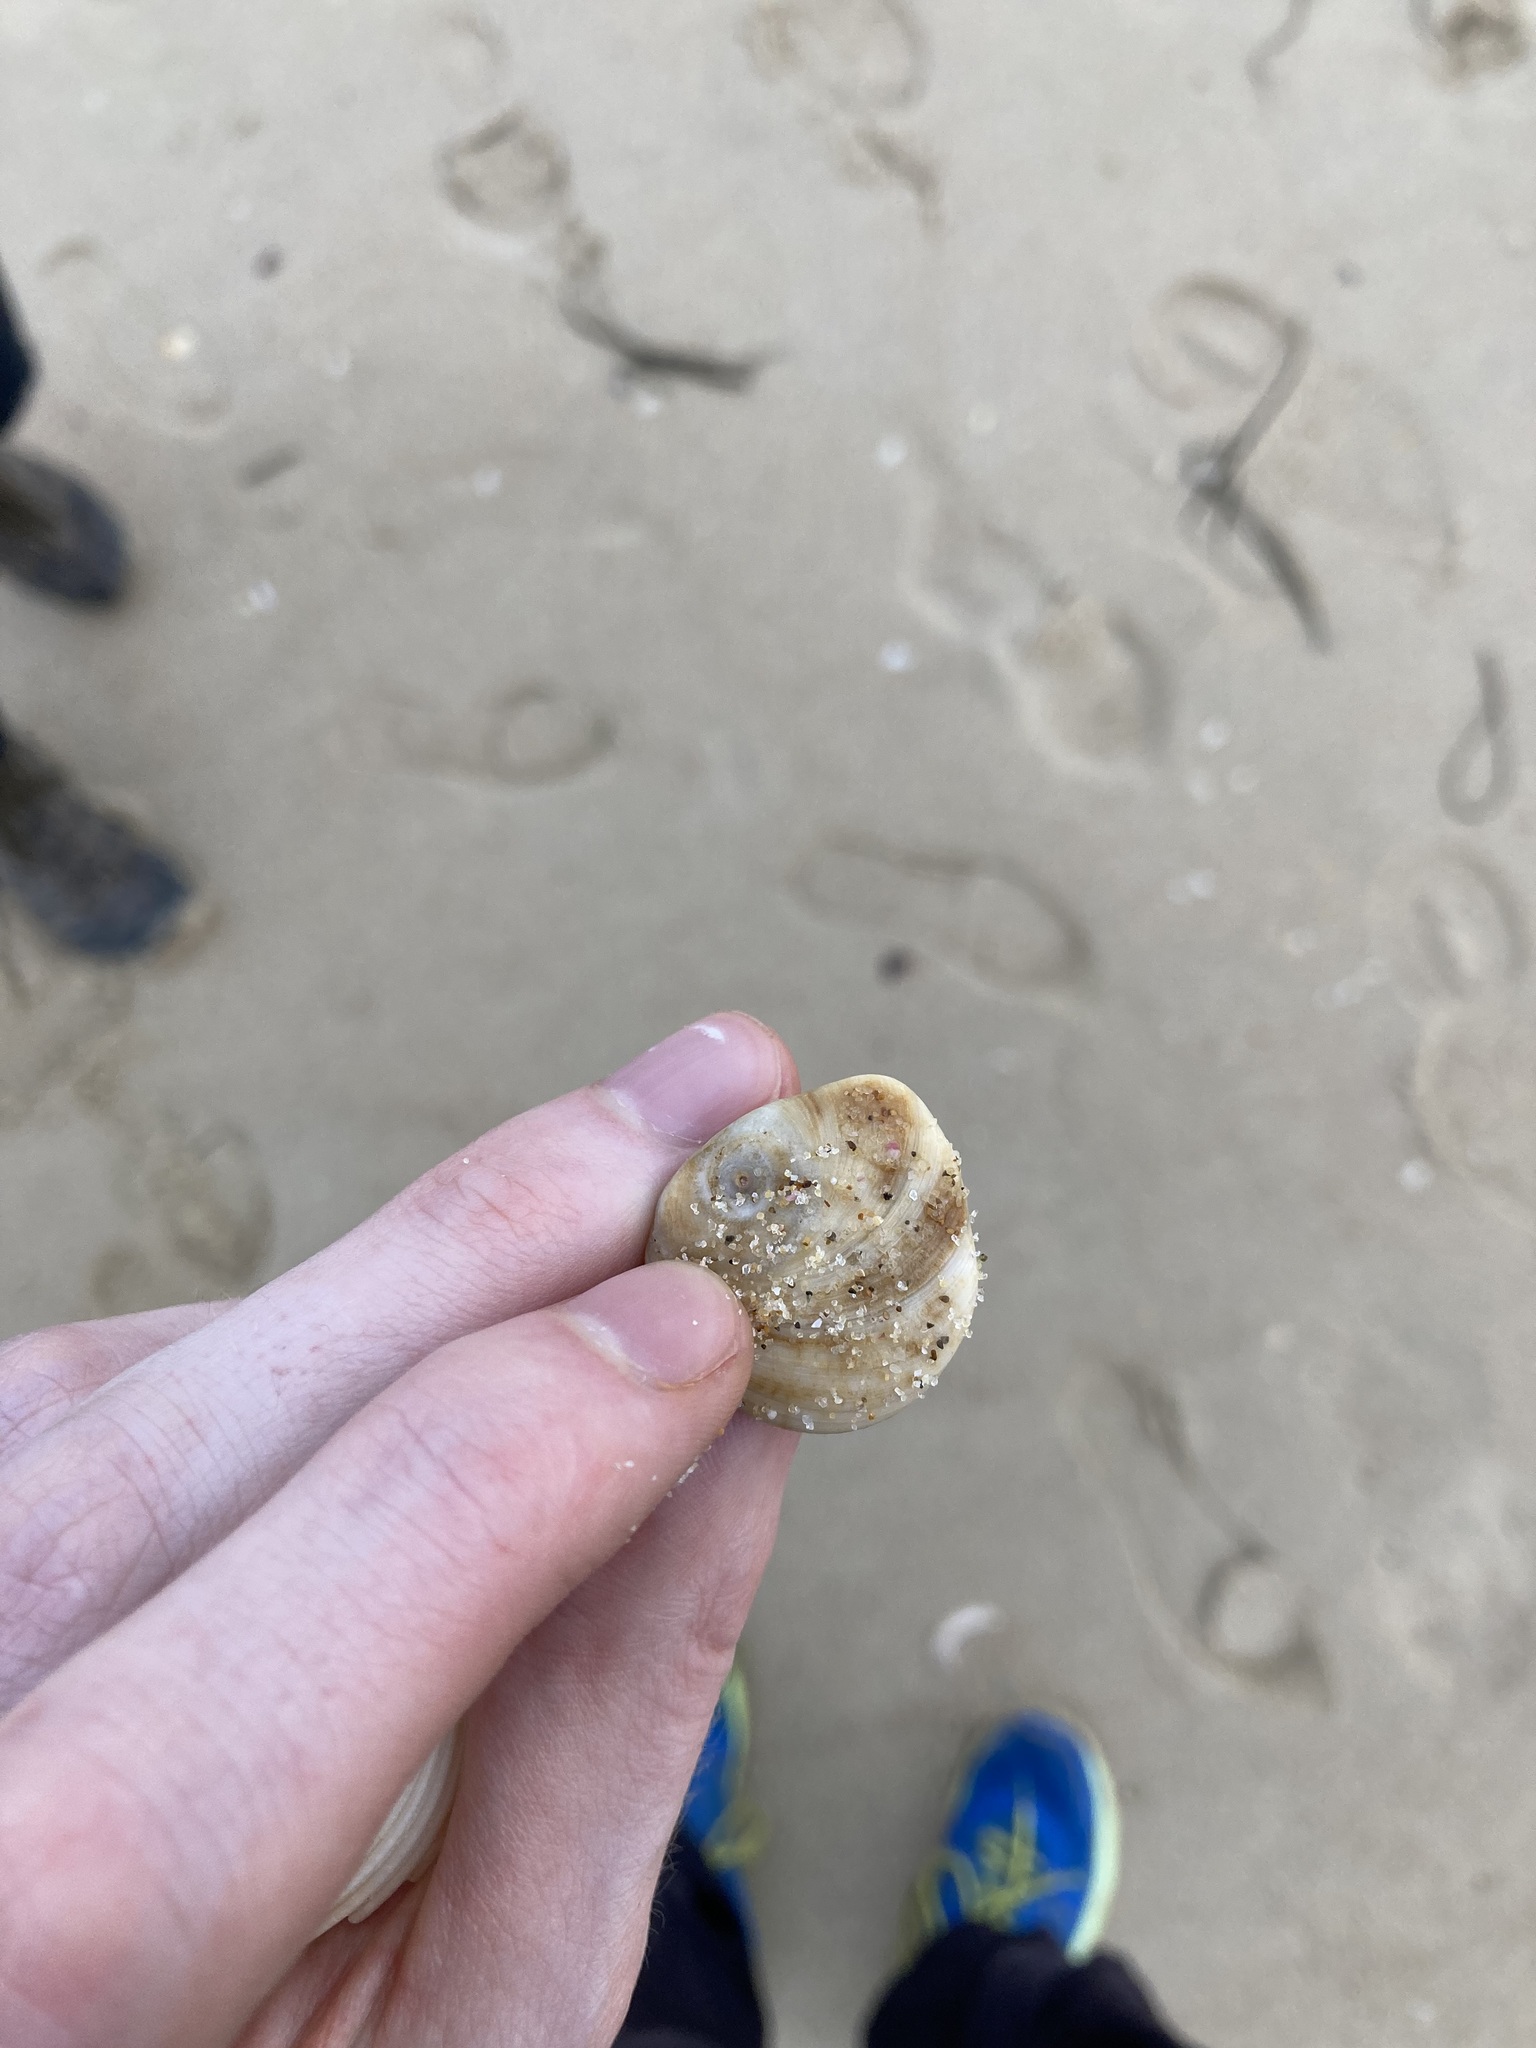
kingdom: Animalia
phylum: Mollusca
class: Gastropoda
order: Trochida
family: Turbinidae
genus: Lunella
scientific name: Lunella torquata
